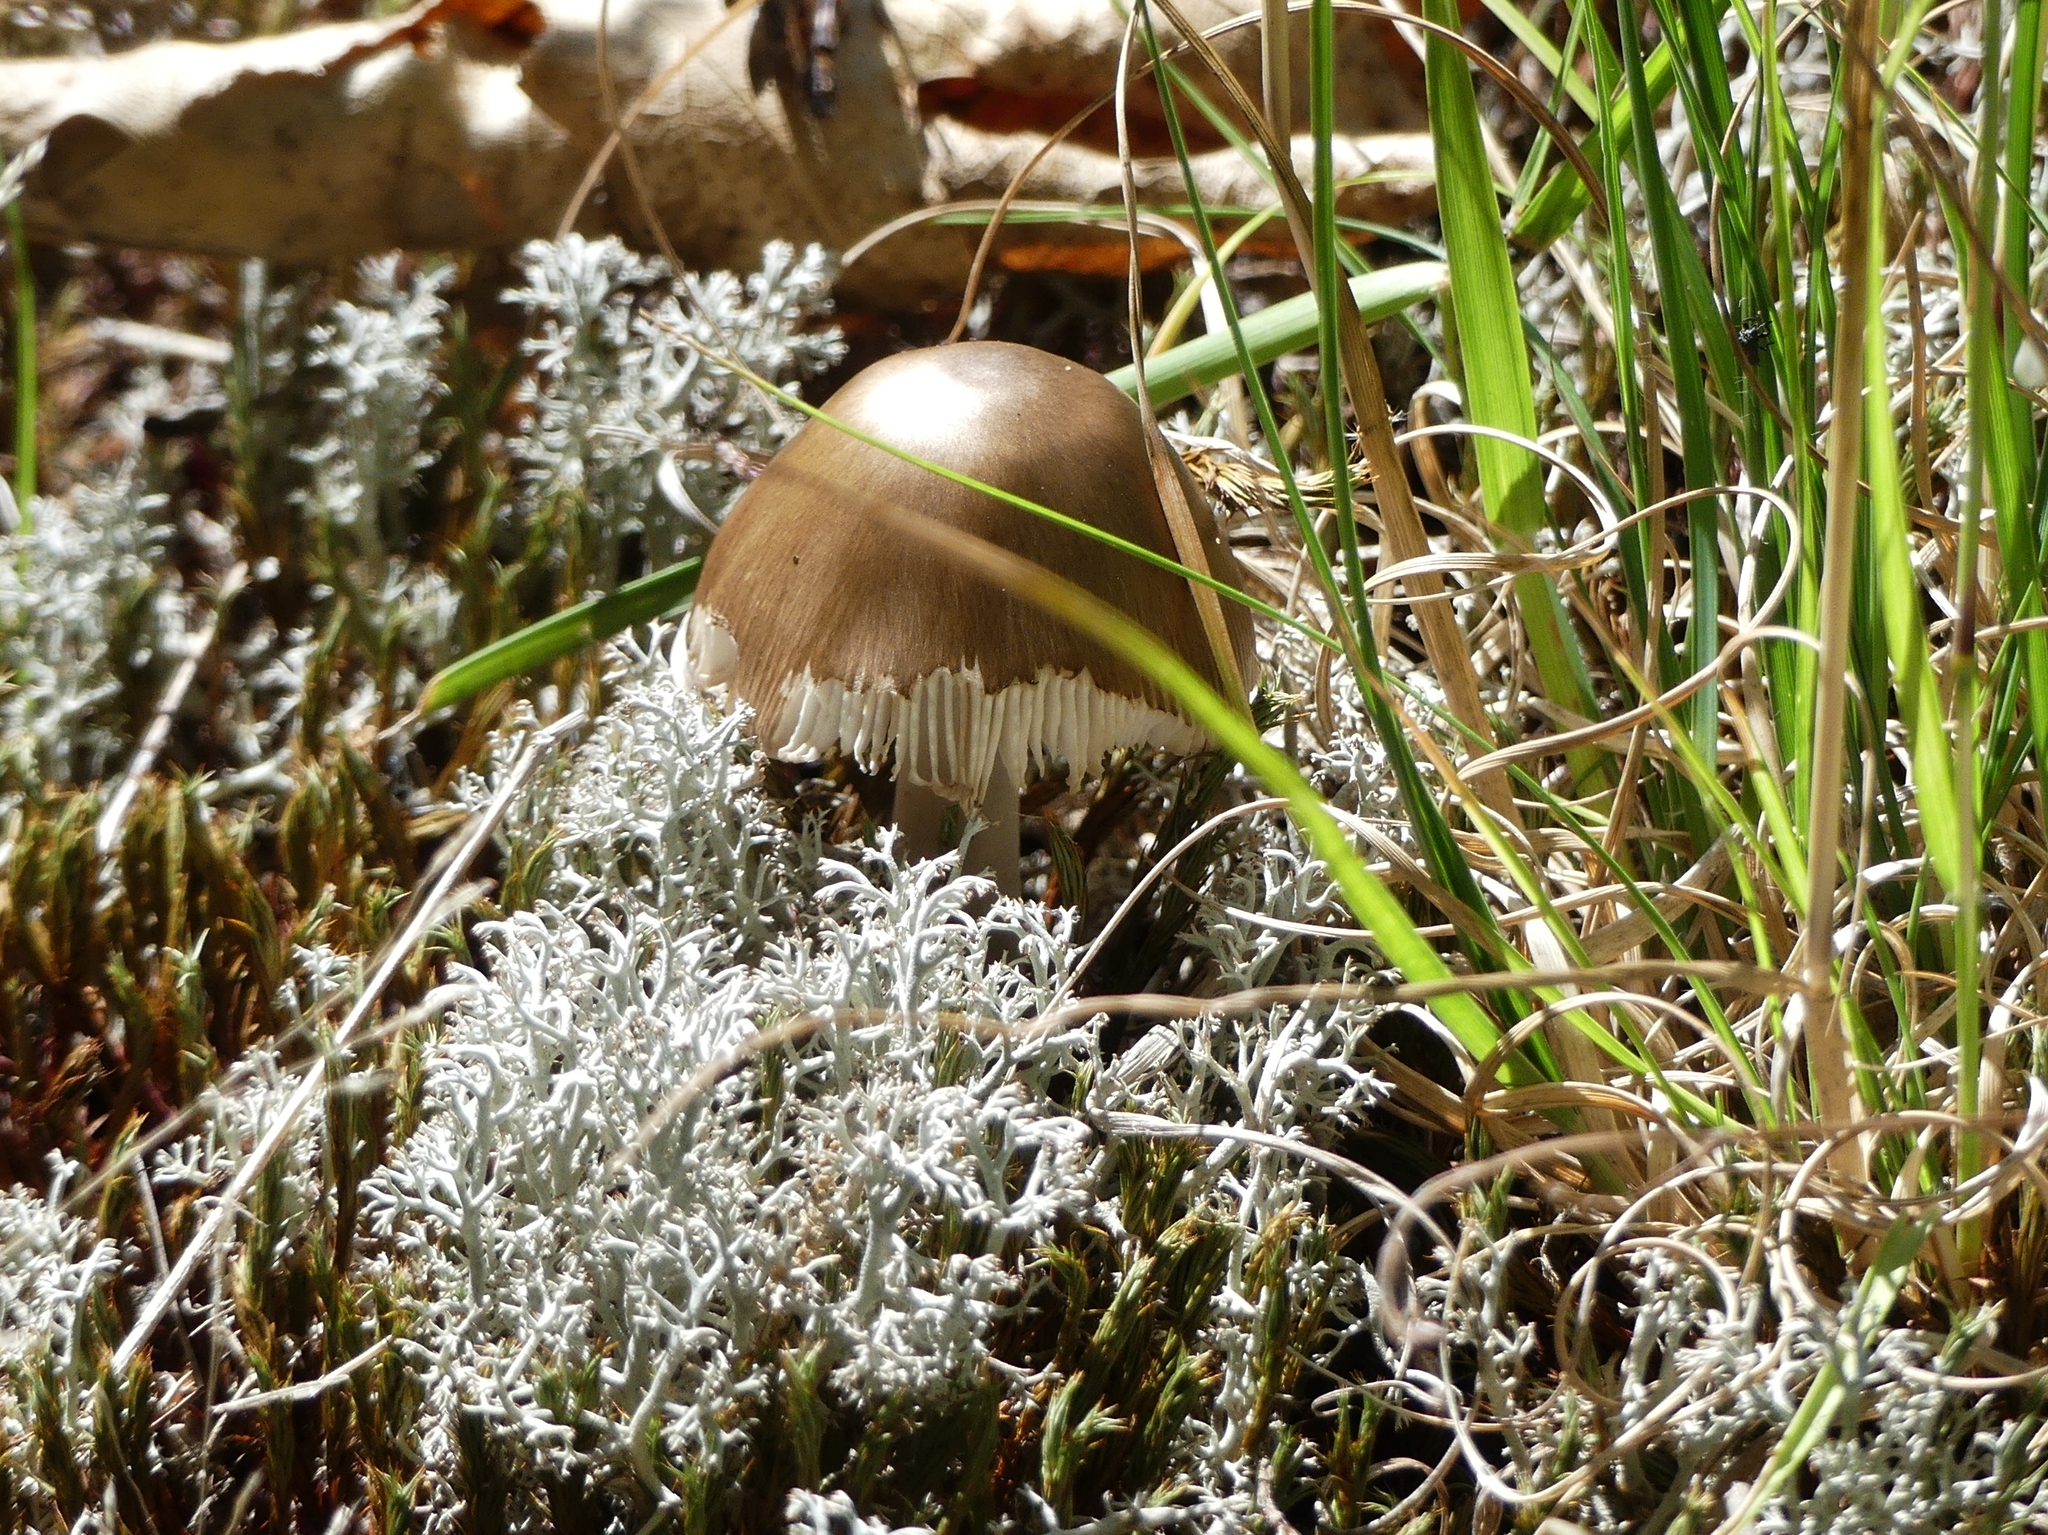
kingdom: Fungi
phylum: Basidiomycota
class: Agaricomycetes
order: Agaricales
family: Amanitaceae
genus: Amanita
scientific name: Amanita vaginata
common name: Grisette
